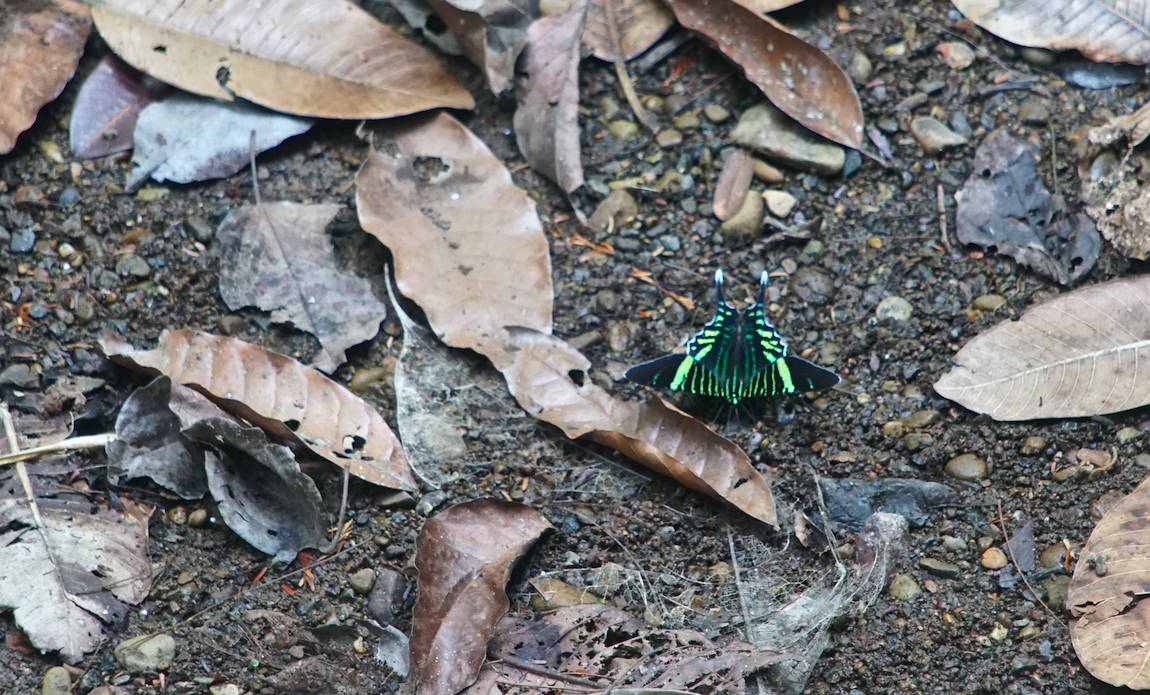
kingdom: Animalia
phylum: Arthropoda
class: Insecta
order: Lepidoptera
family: Uraniidae
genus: Urania
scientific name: Urania fulgens
